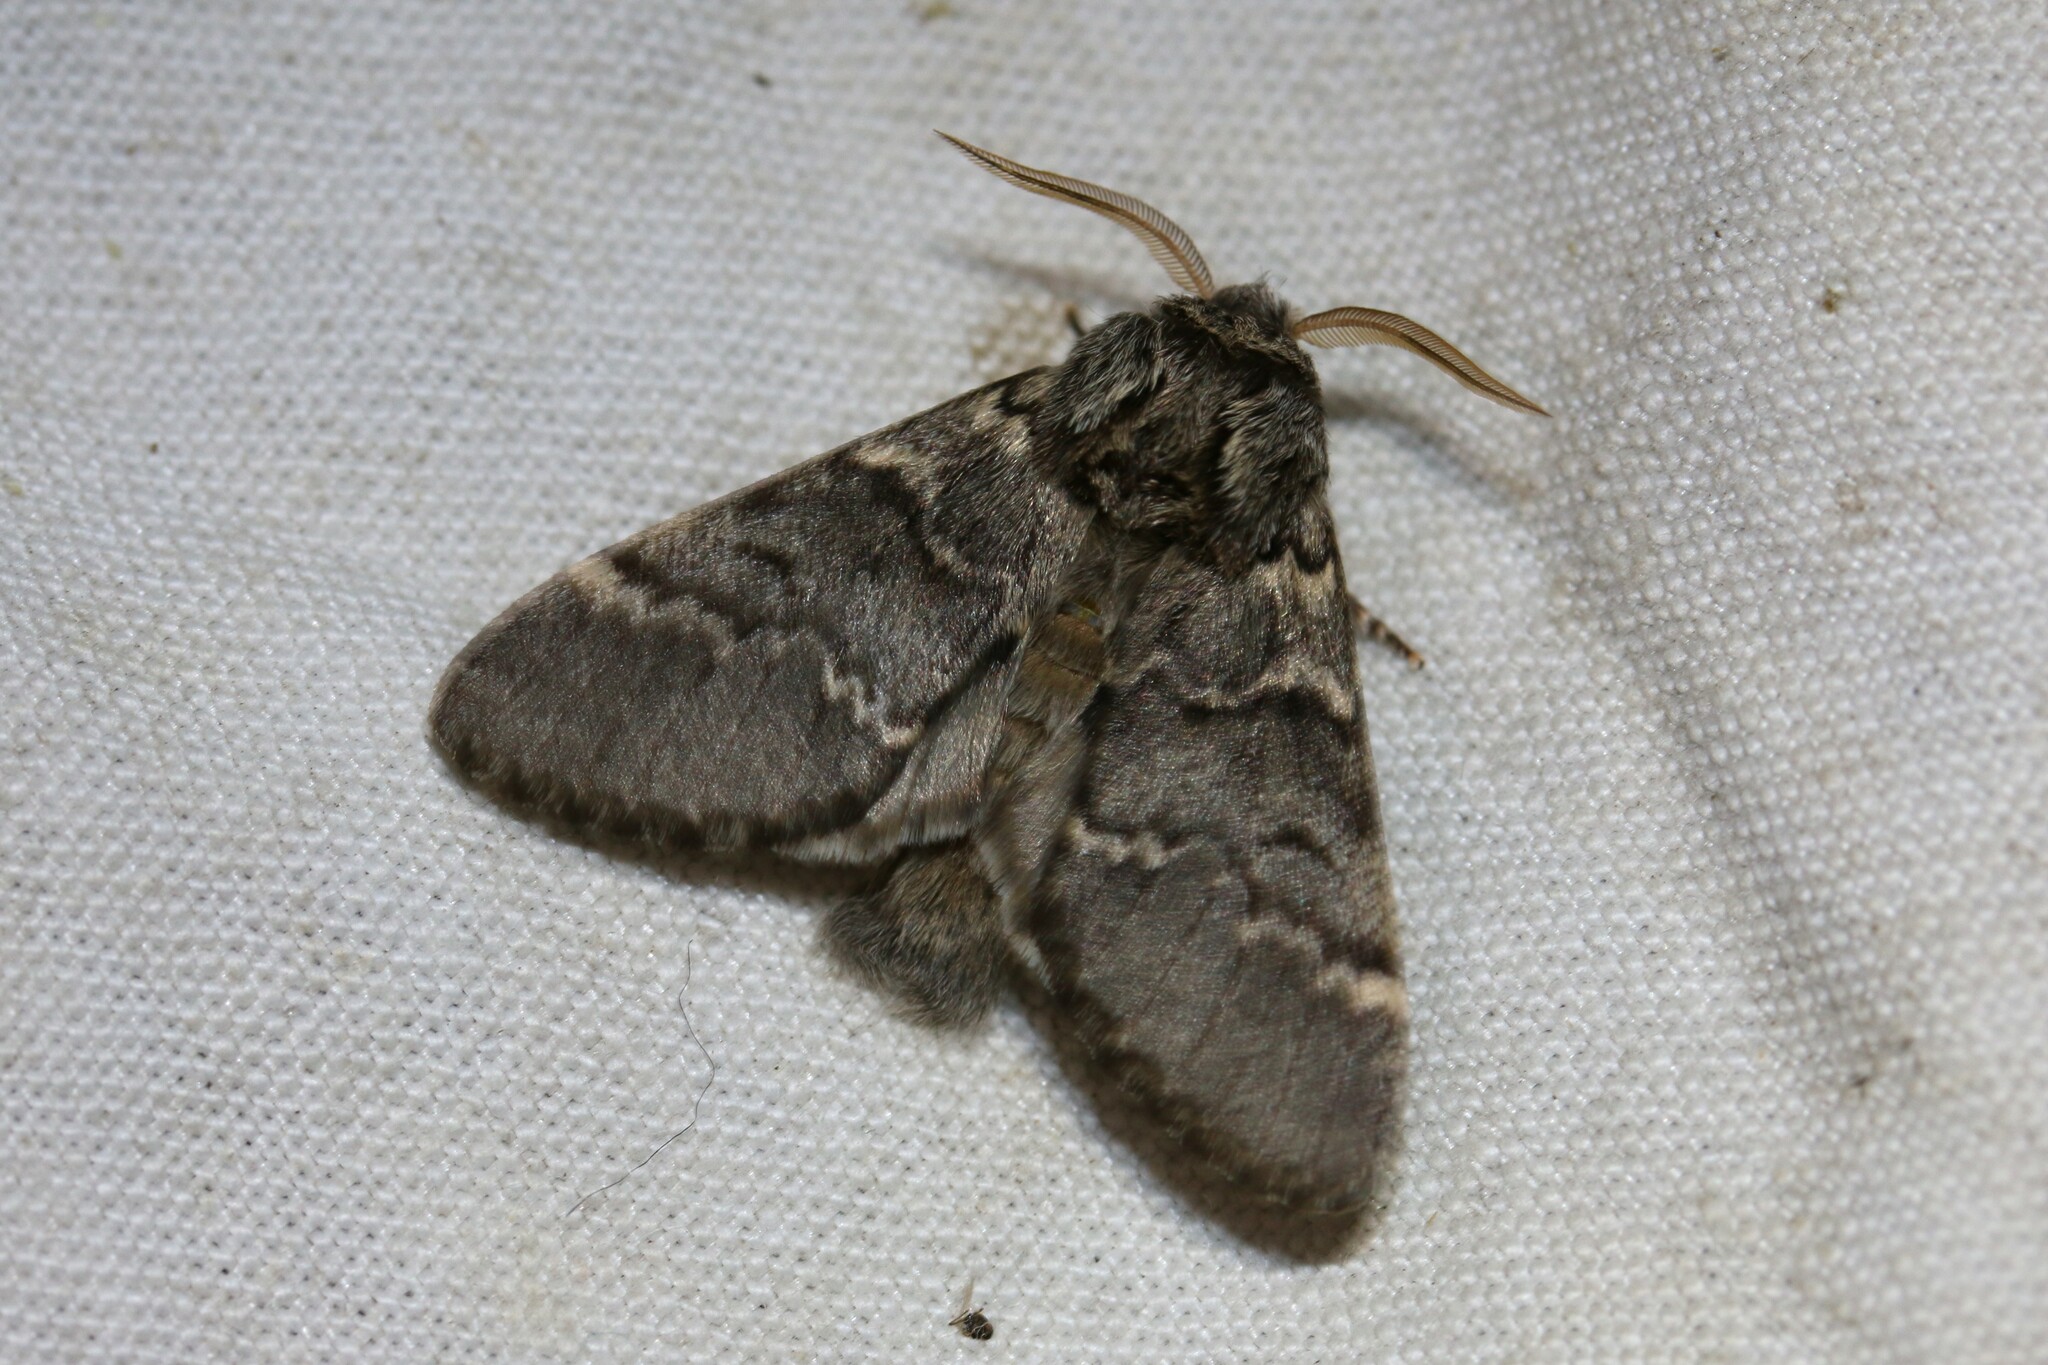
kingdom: Animalia
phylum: Arthropoda
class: Insecta
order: Lepidoptera
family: Notodontidae
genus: Drymonia
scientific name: Drymonia ruficornis
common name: Lunar marbled brown
